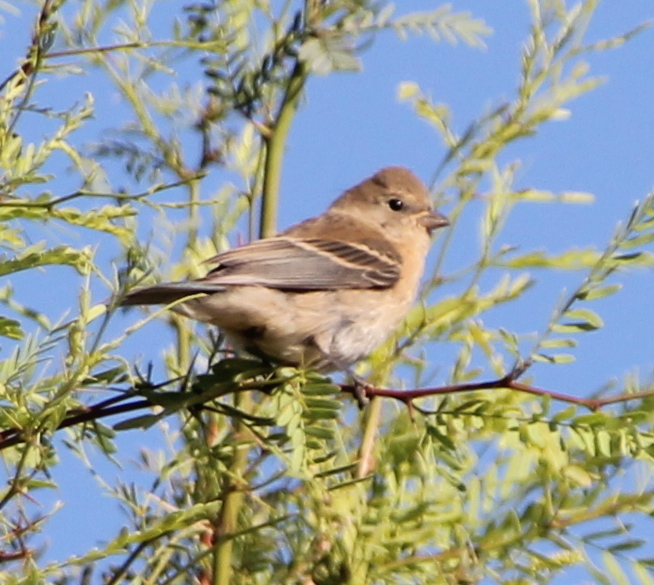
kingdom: Animalia
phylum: Chordata
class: Aves
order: Passeriformes
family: Cardinalidae
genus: Passerina
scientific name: Passerina amoena
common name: Lazuli bunting
